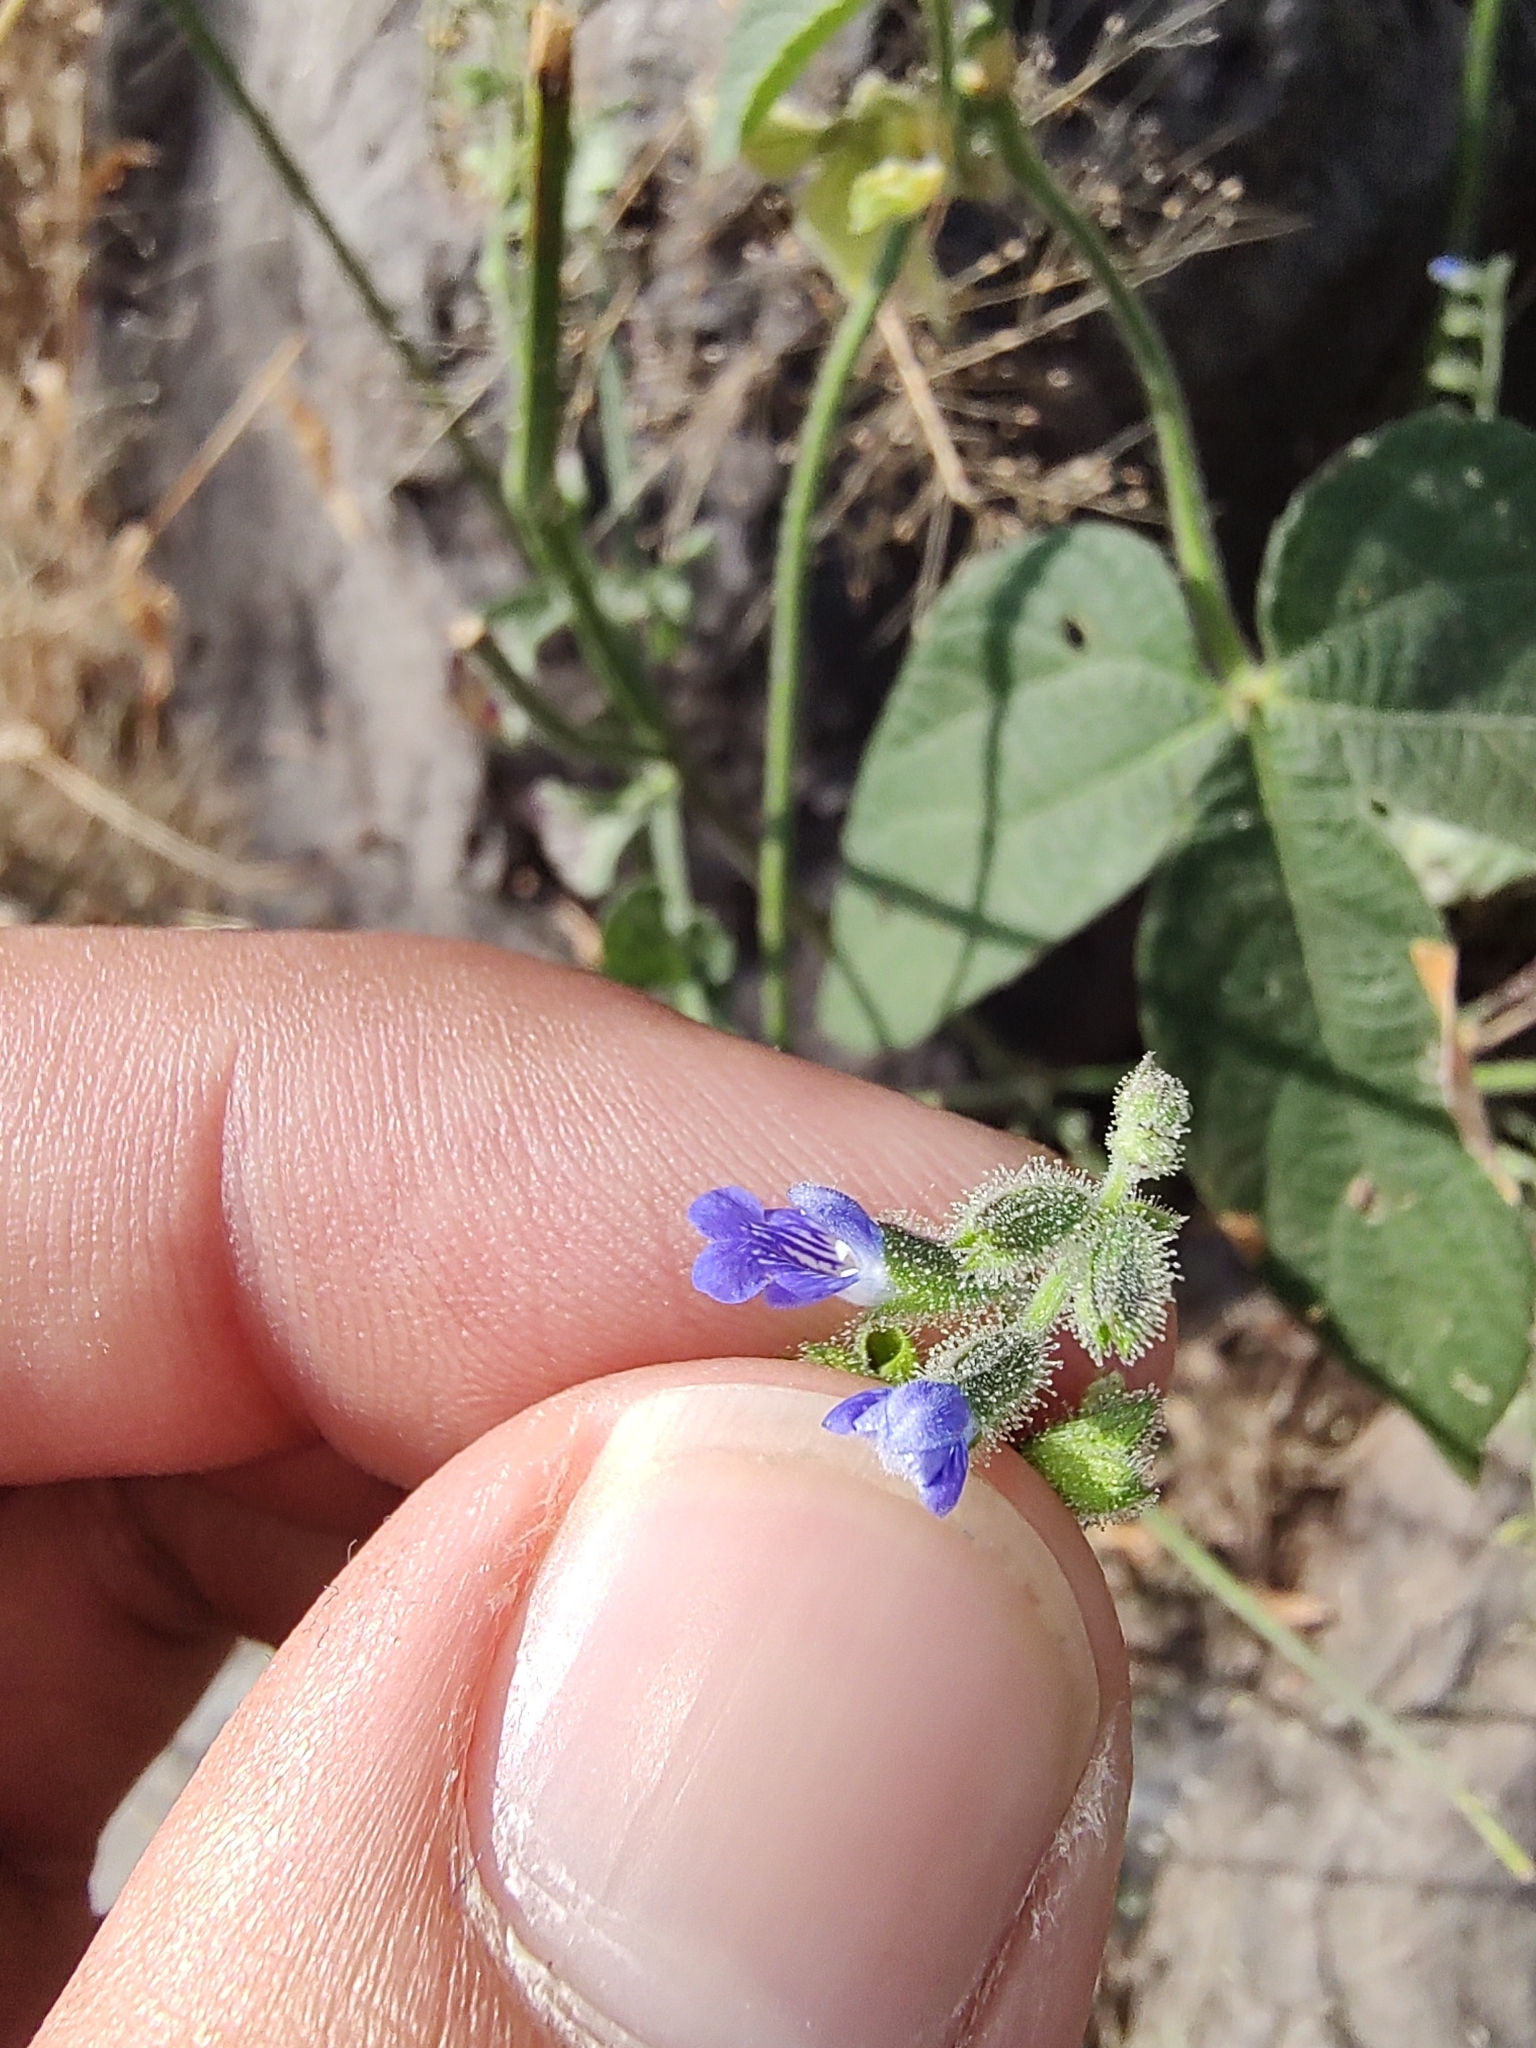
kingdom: Plantae
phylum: Tracheophyta
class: Magnoliopsida
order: Lamiales
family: Lamiaceae
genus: Salvia
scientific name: Salvia misella
